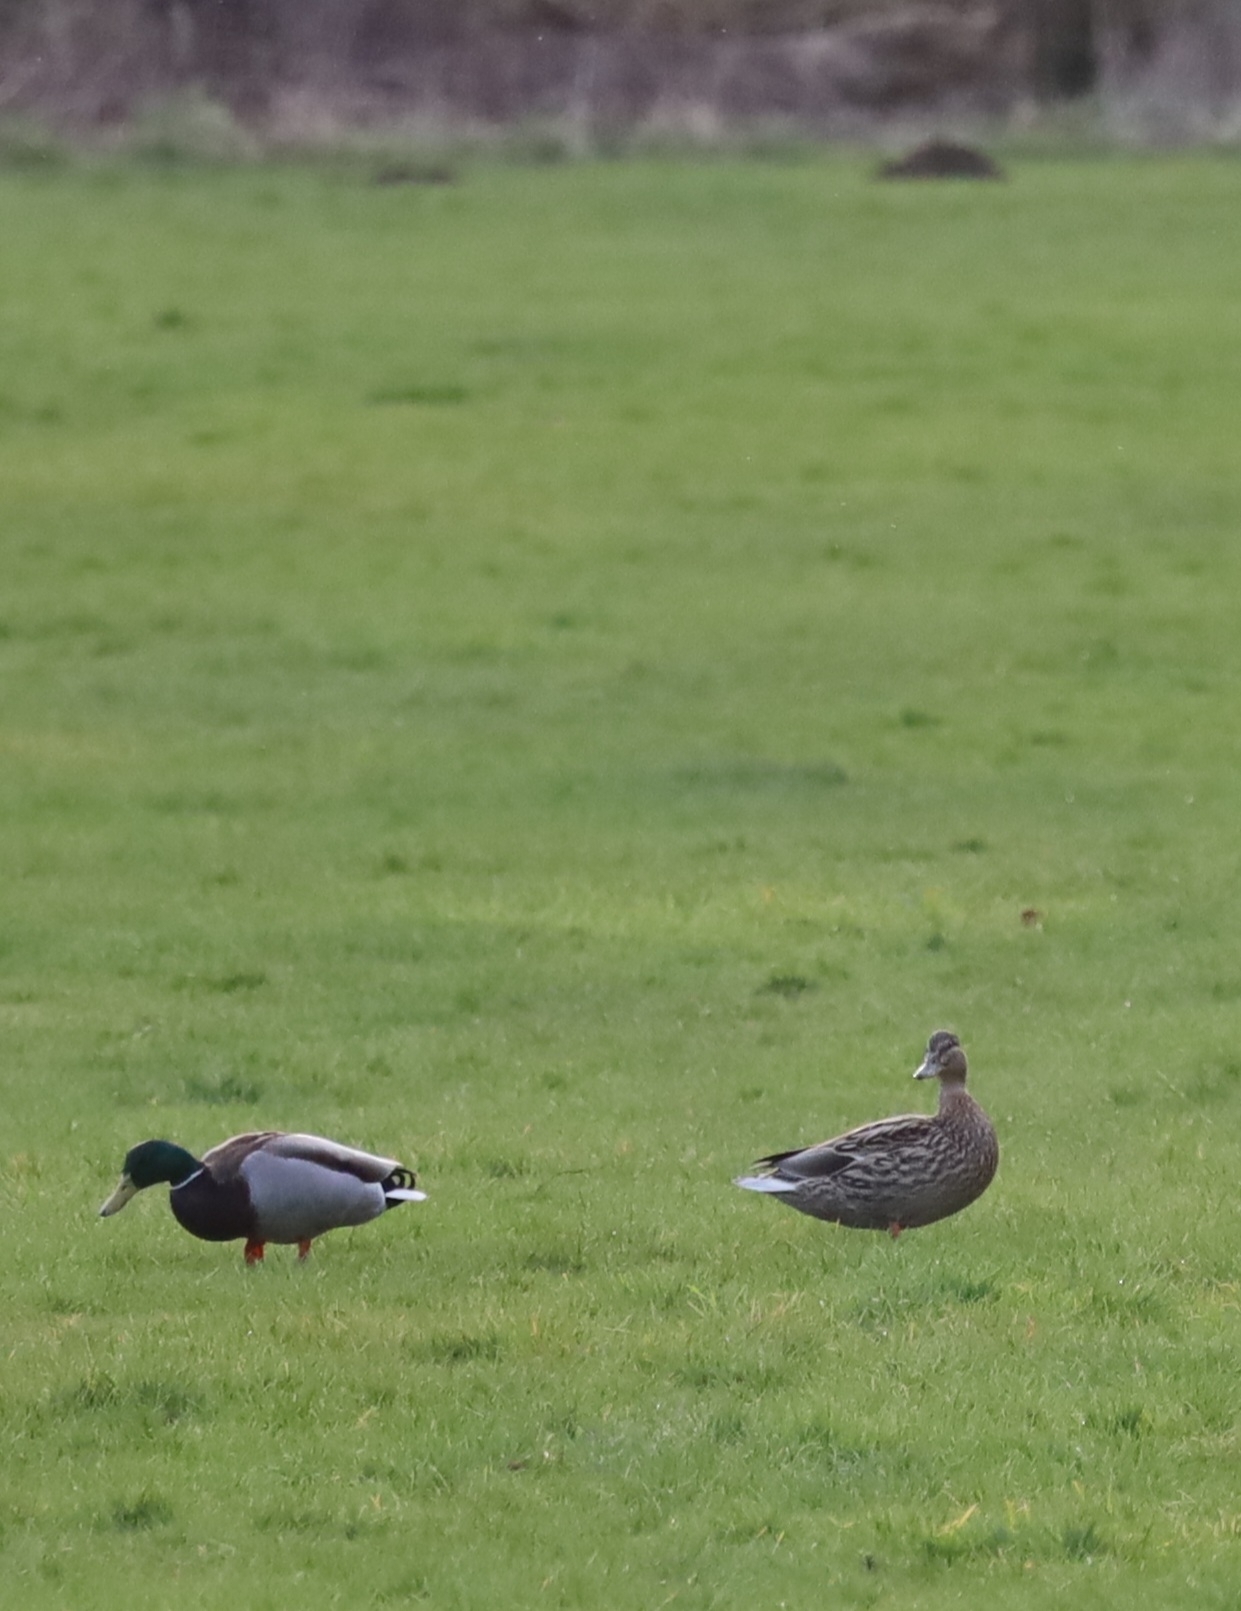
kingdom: Animalia
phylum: Chordata
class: Aves
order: Anseriformes
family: Anatidae
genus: Anas
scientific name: Anas platyrhynchos
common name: Mallard
